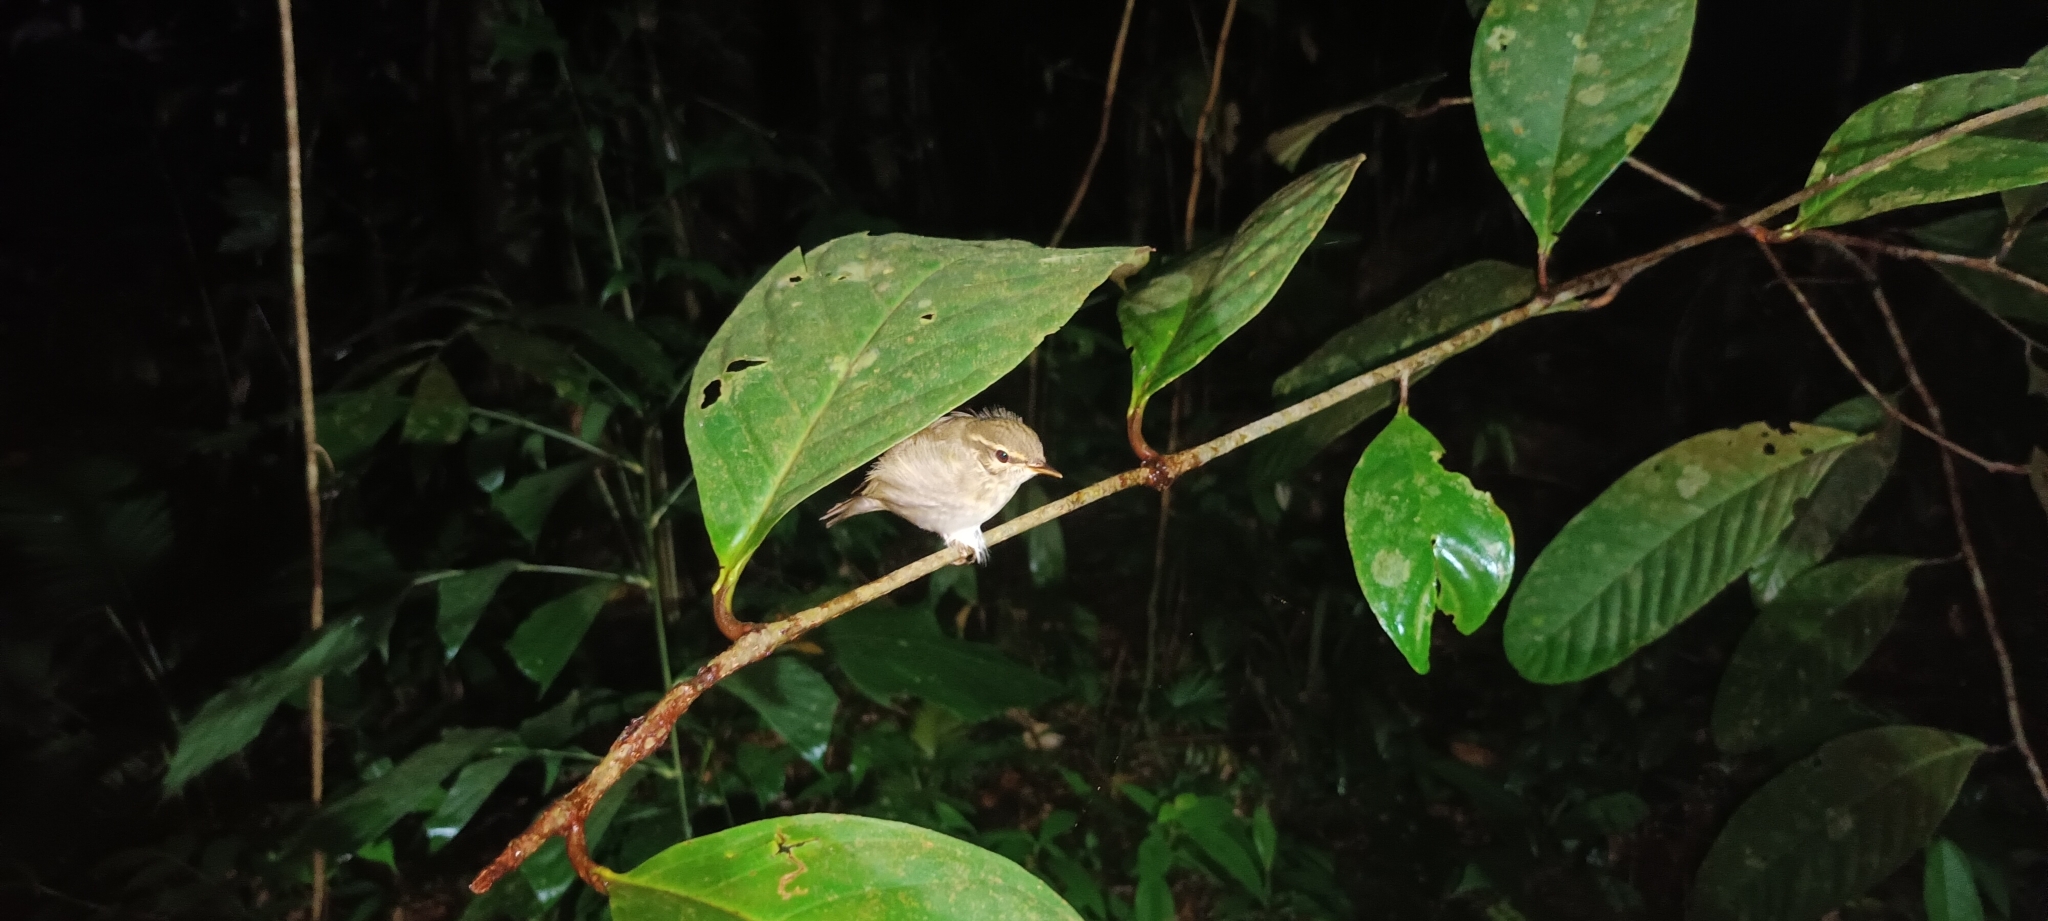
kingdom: Animalia
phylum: Chordata
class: Aves
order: Passeriformes
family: Phylloscopidae
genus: Phylloscopus
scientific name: Phylloscopus borealis
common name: Arctic warbler
